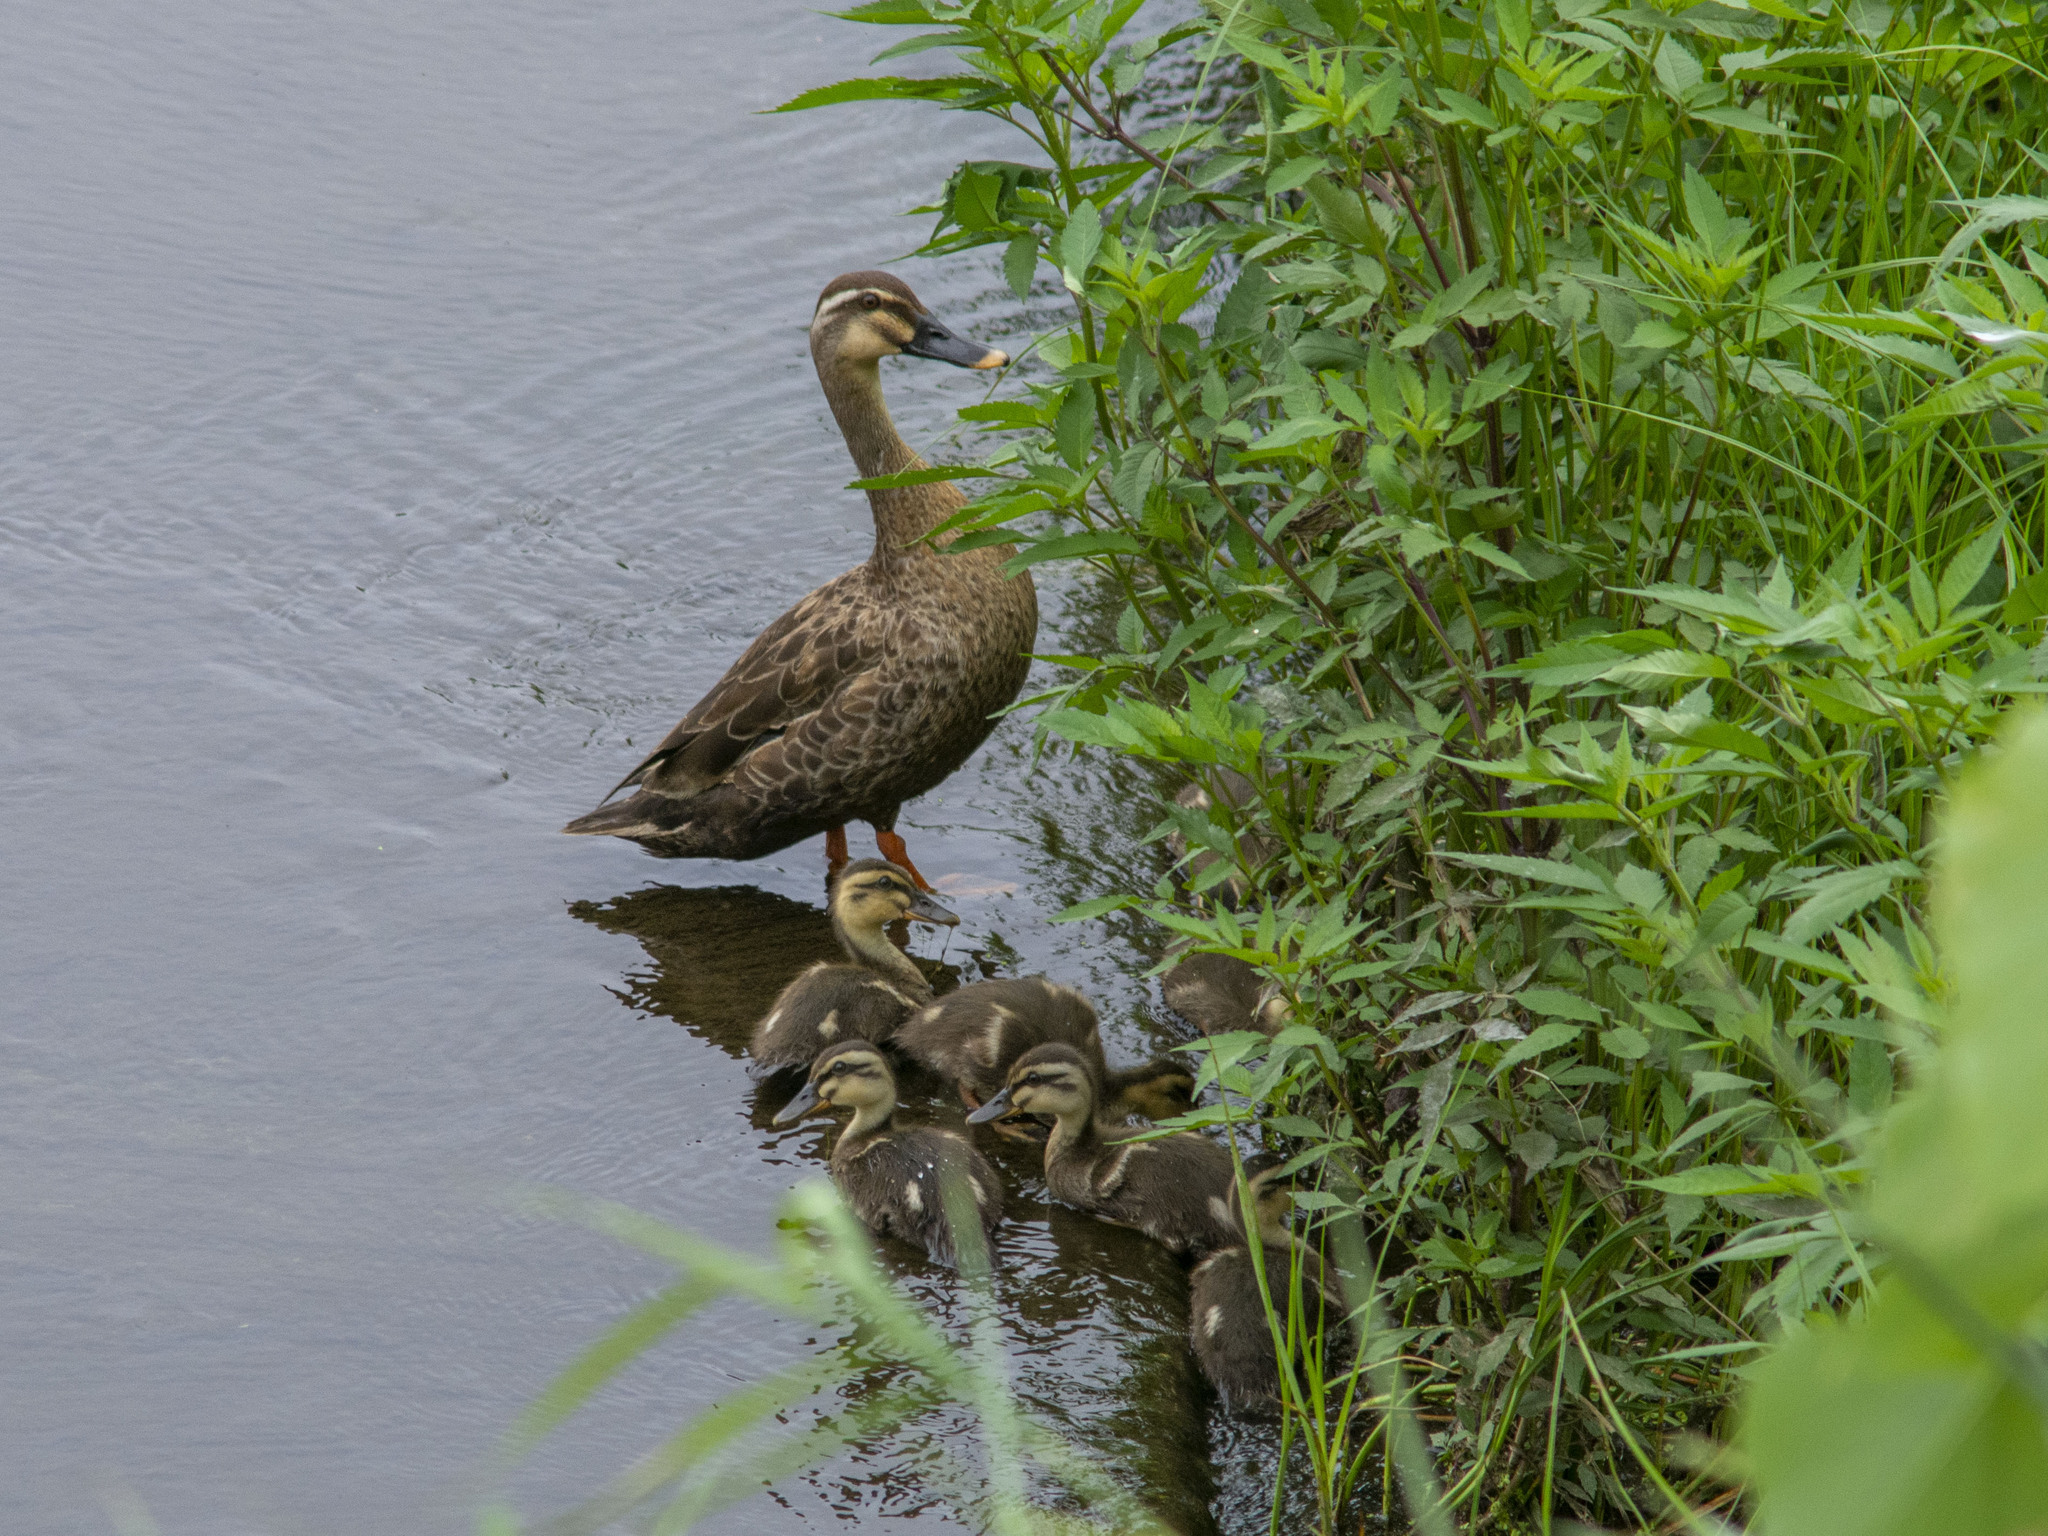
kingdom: Animalia
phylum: Chordata
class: Aves
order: Anseriformes
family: Anatidae
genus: Anas
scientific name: Anas zonorhyncha
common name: Eastern spot-billed duck
